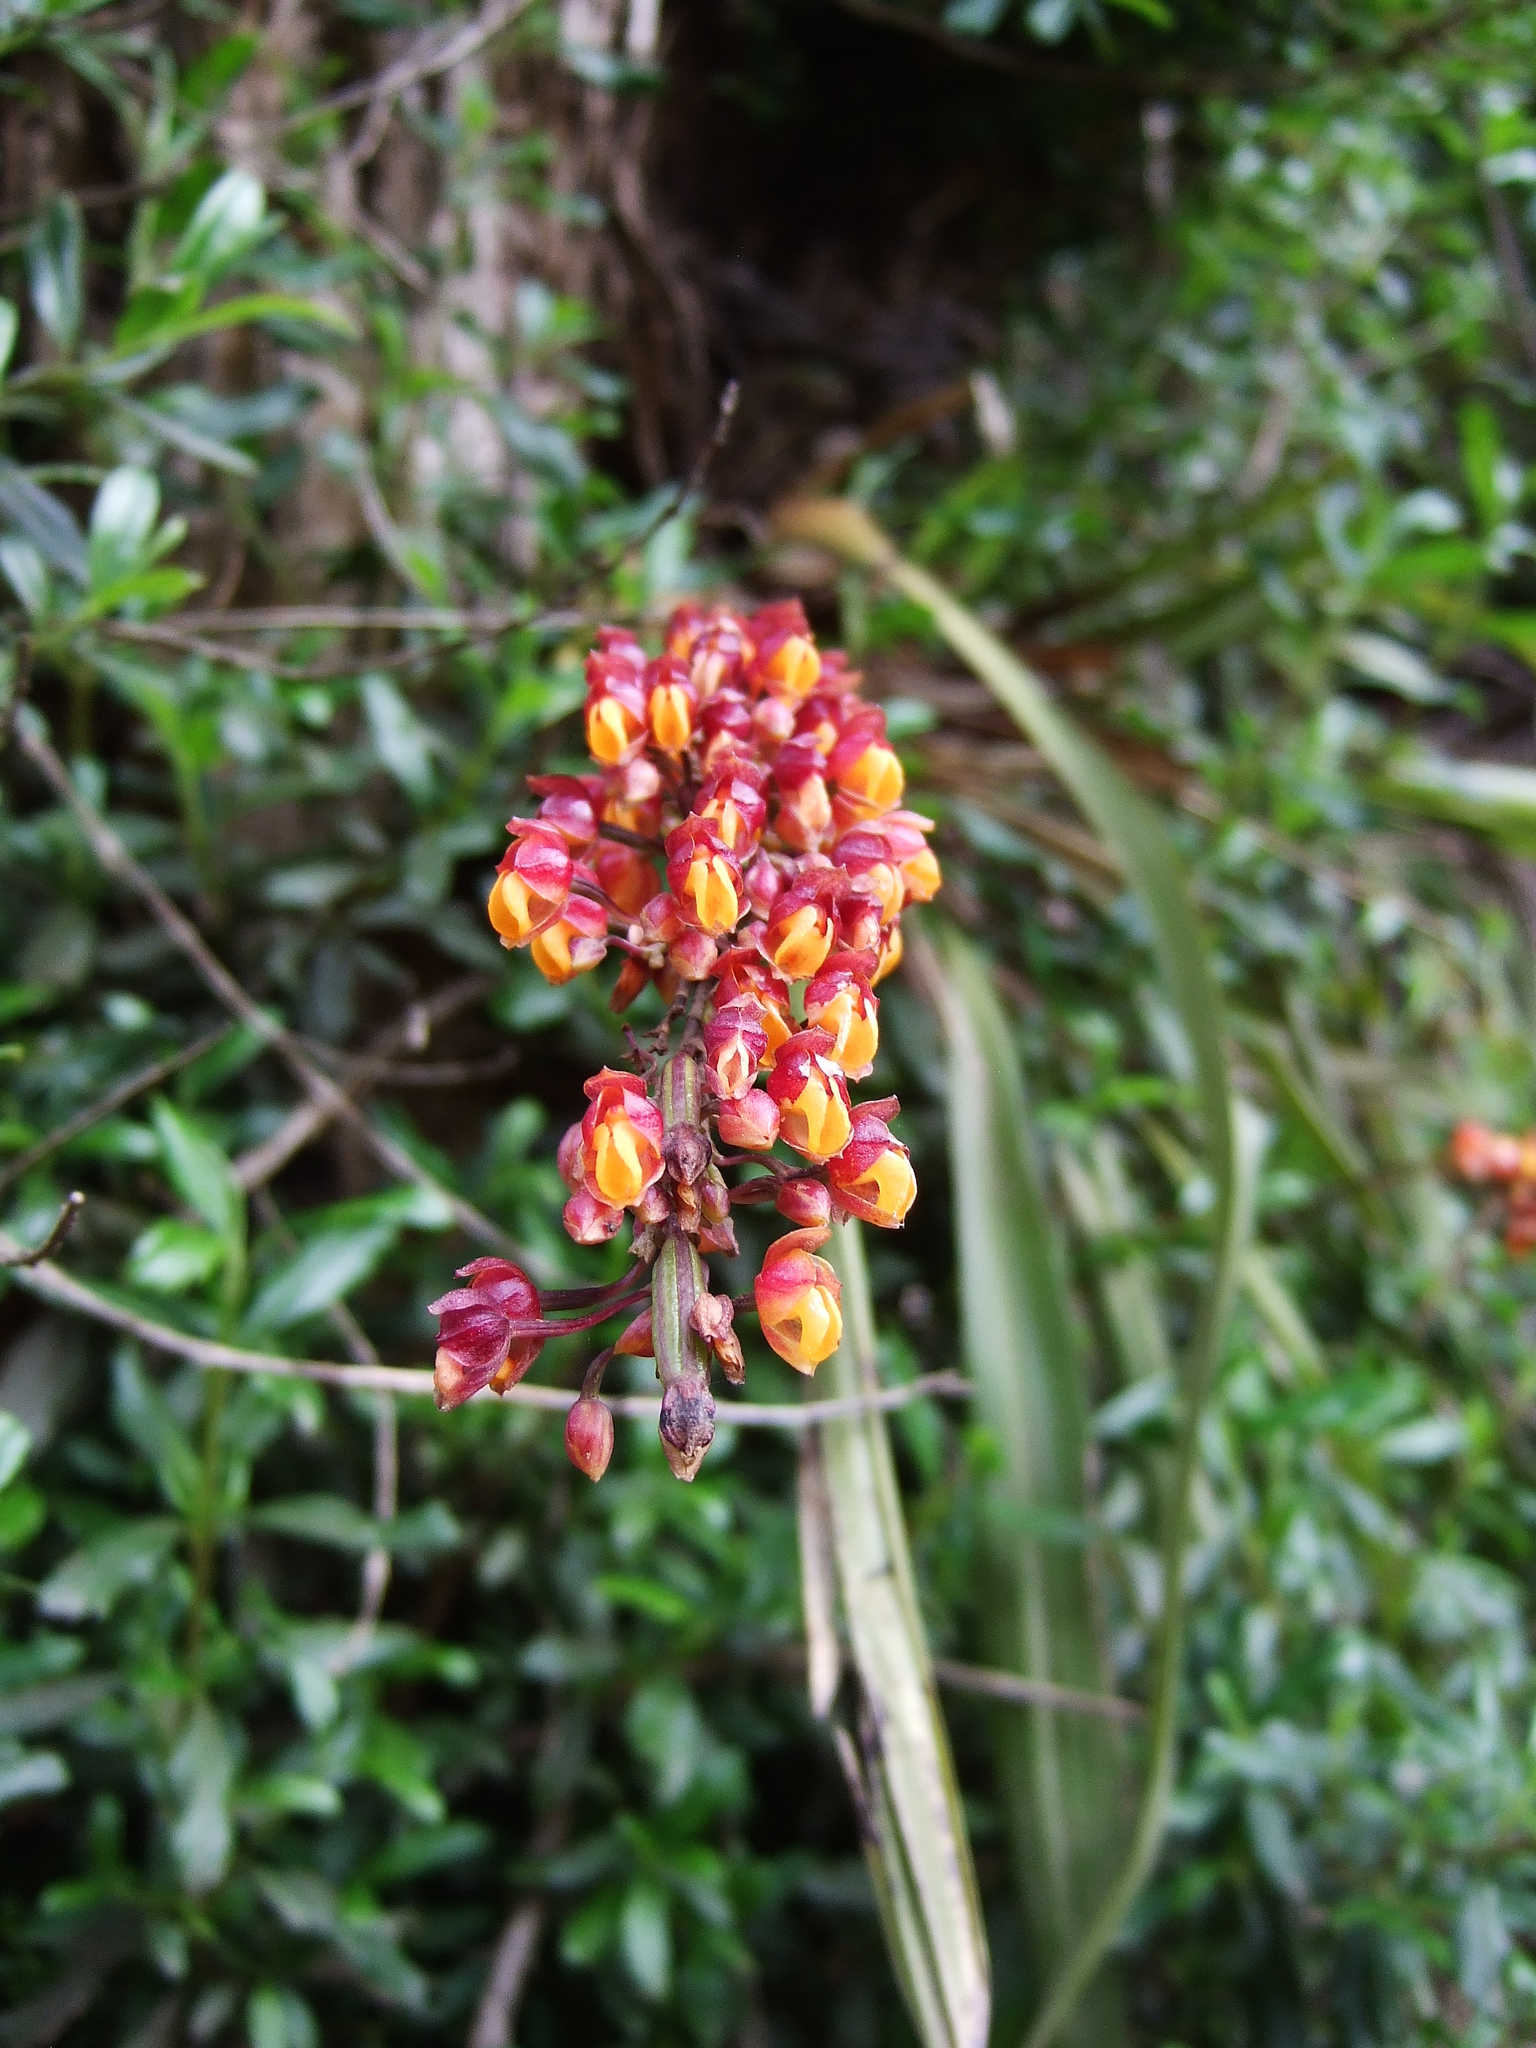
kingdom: Plantae
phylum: Tracheophyta
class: Liliopsida
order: Asparagales
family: Orchidaceae
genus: Cyrtochilum
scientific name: Cyrtochilum rhodoneurum
